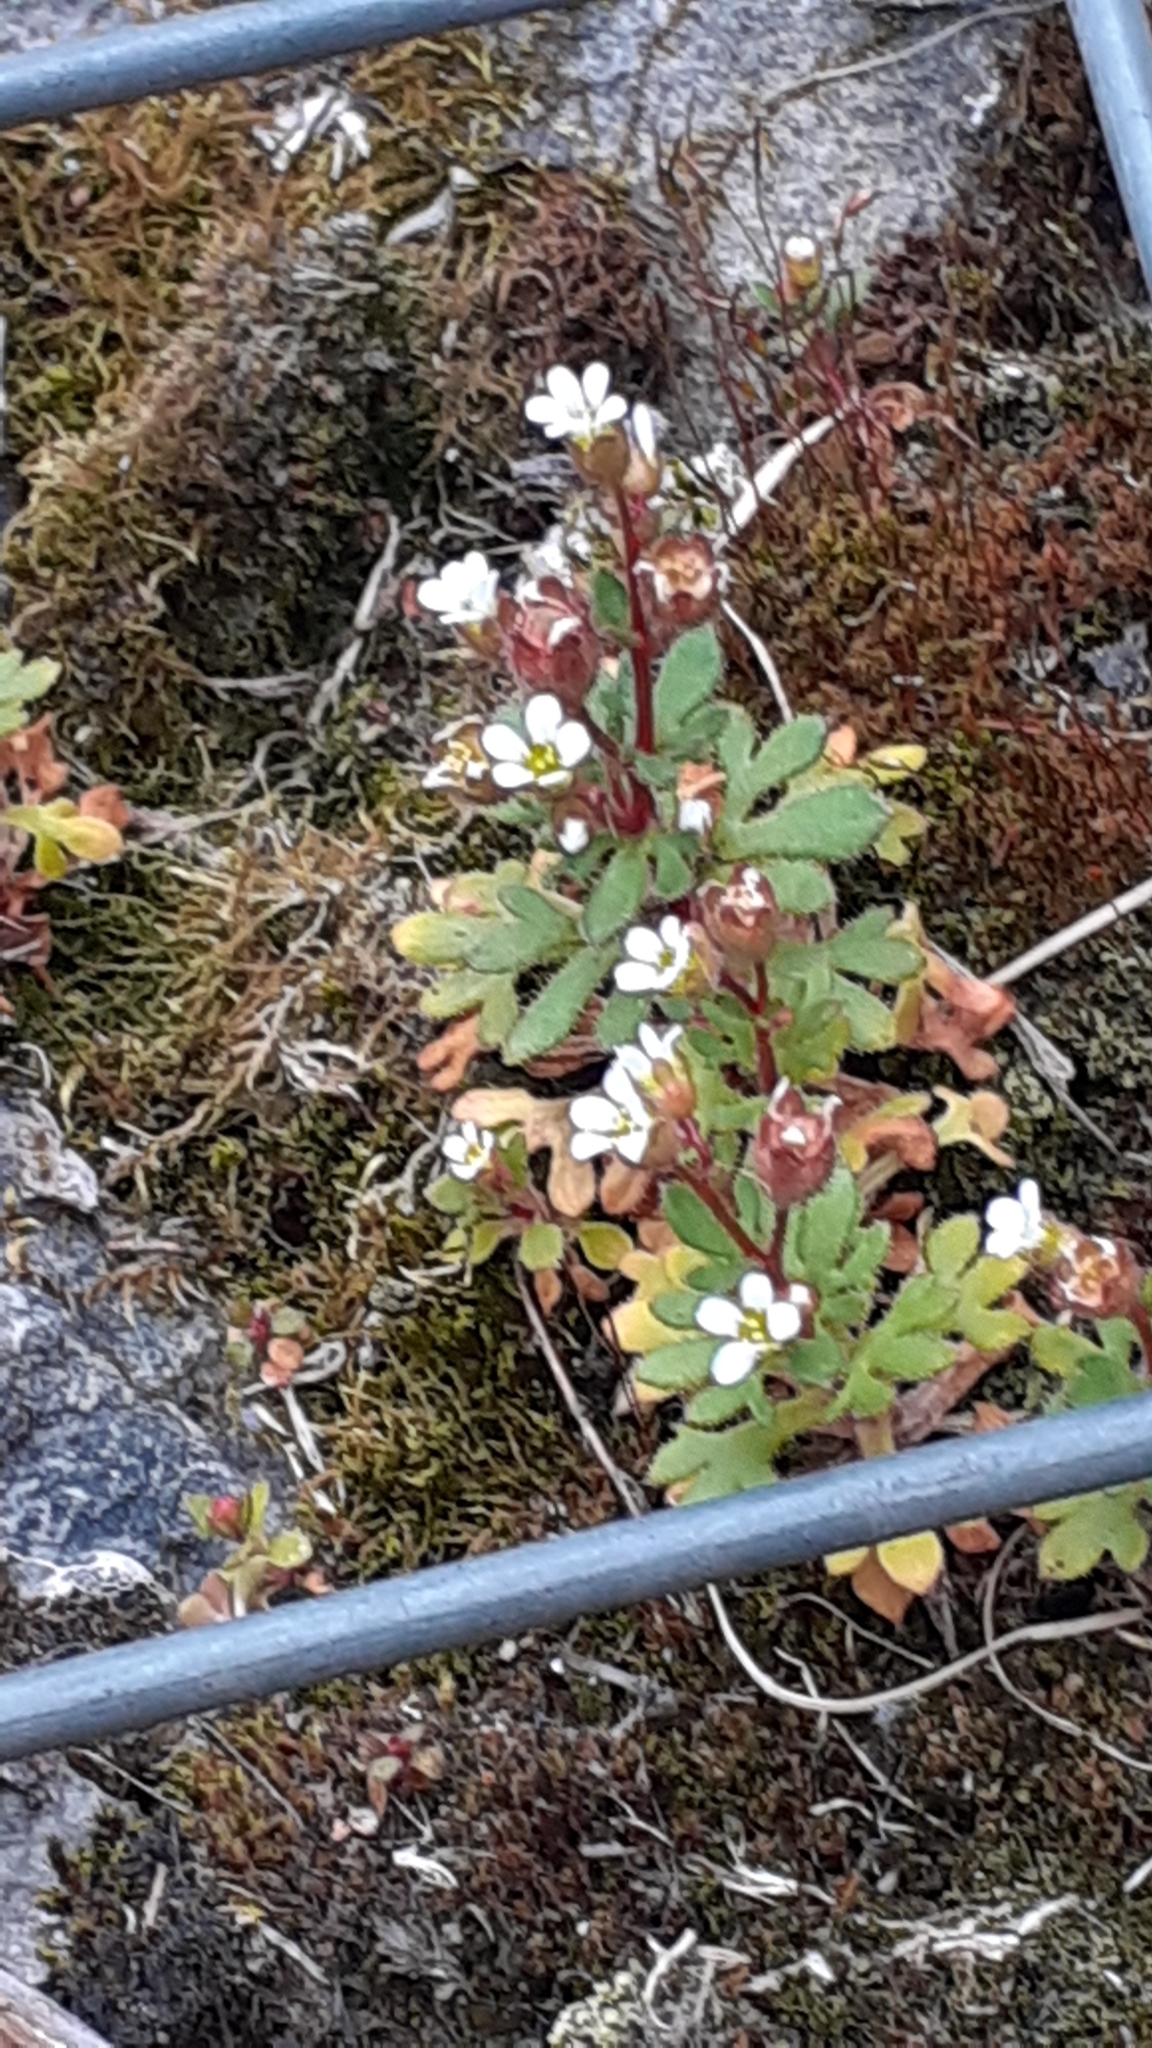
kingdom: Plantae
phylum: Tracheophyta
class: Magnoliopsida
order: Saxifragales
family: Saxifragaceae
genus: Saxifraga
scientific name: Saxifraga tridactylites
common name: Rue-leaved saxifrage
